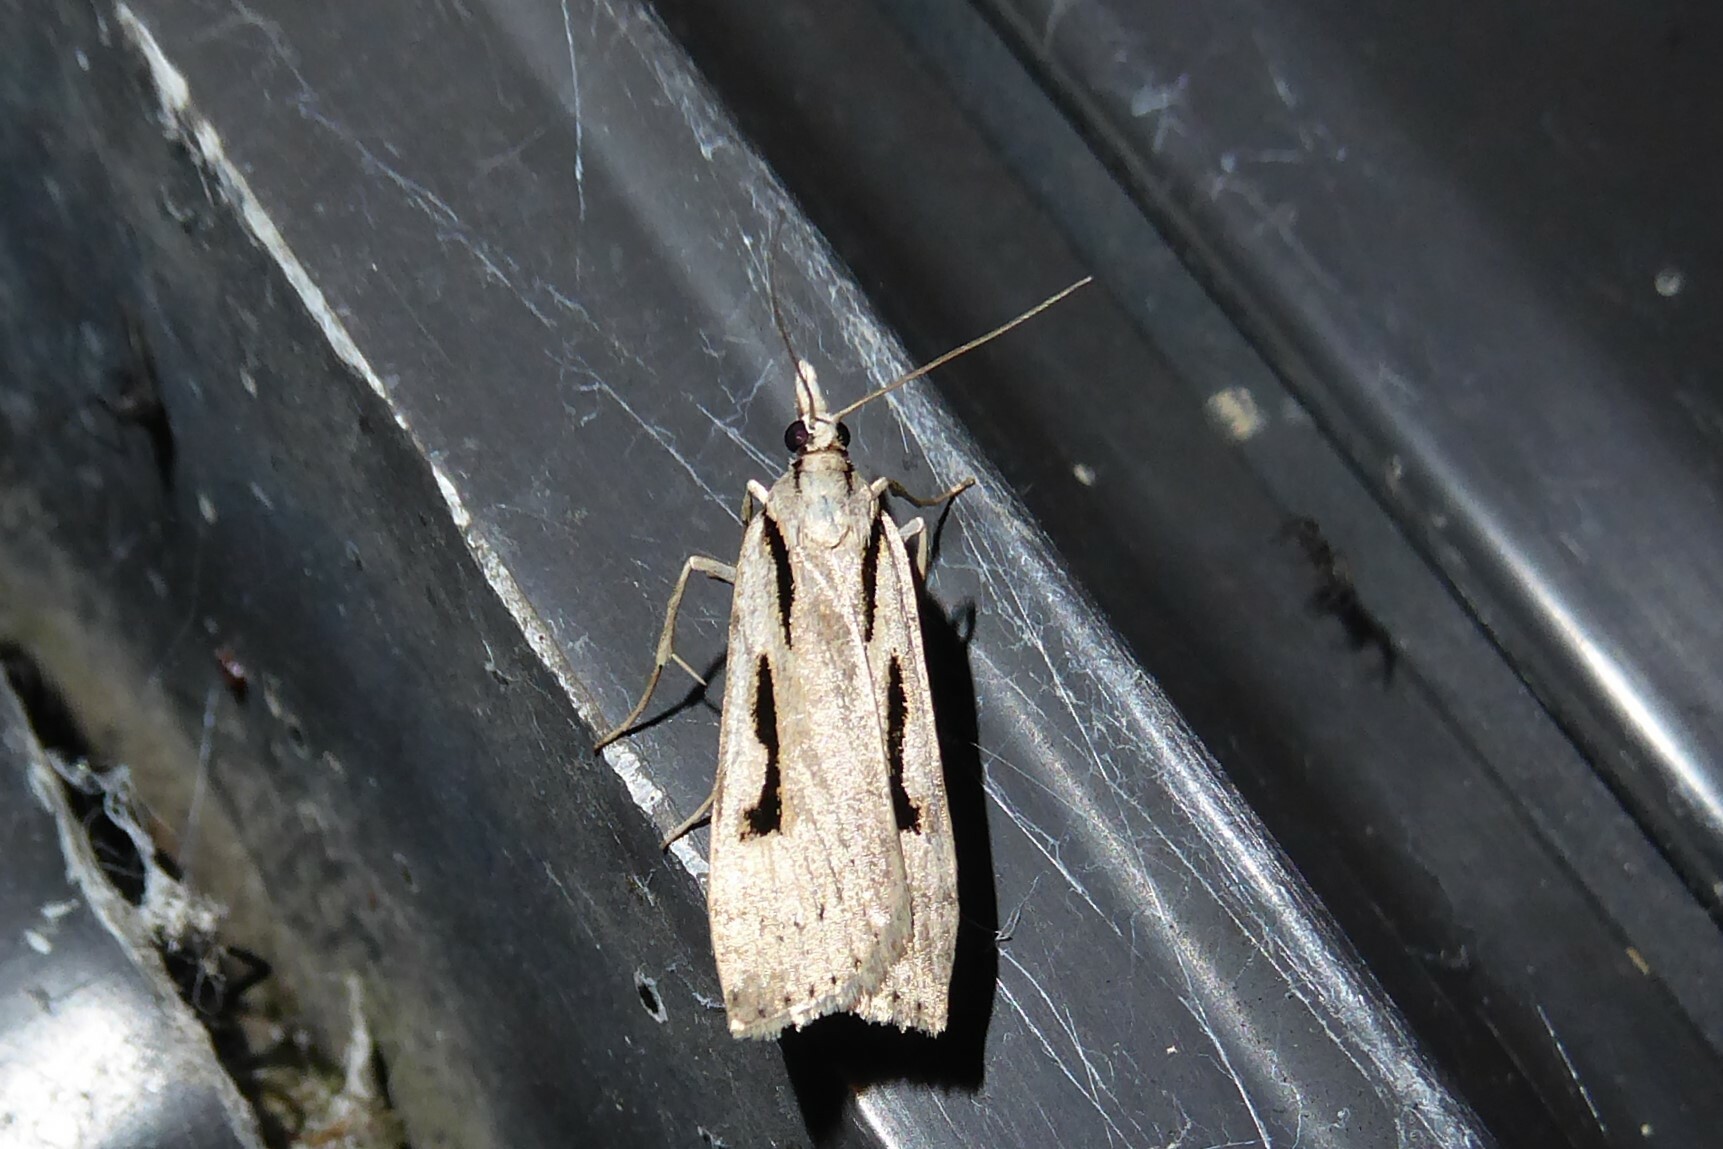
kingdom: Animalia
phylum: Arthropoda
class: Insecta
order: Lepidoptera
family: Crambidae
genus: Scoparia
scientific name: Scoparia rotuellus
